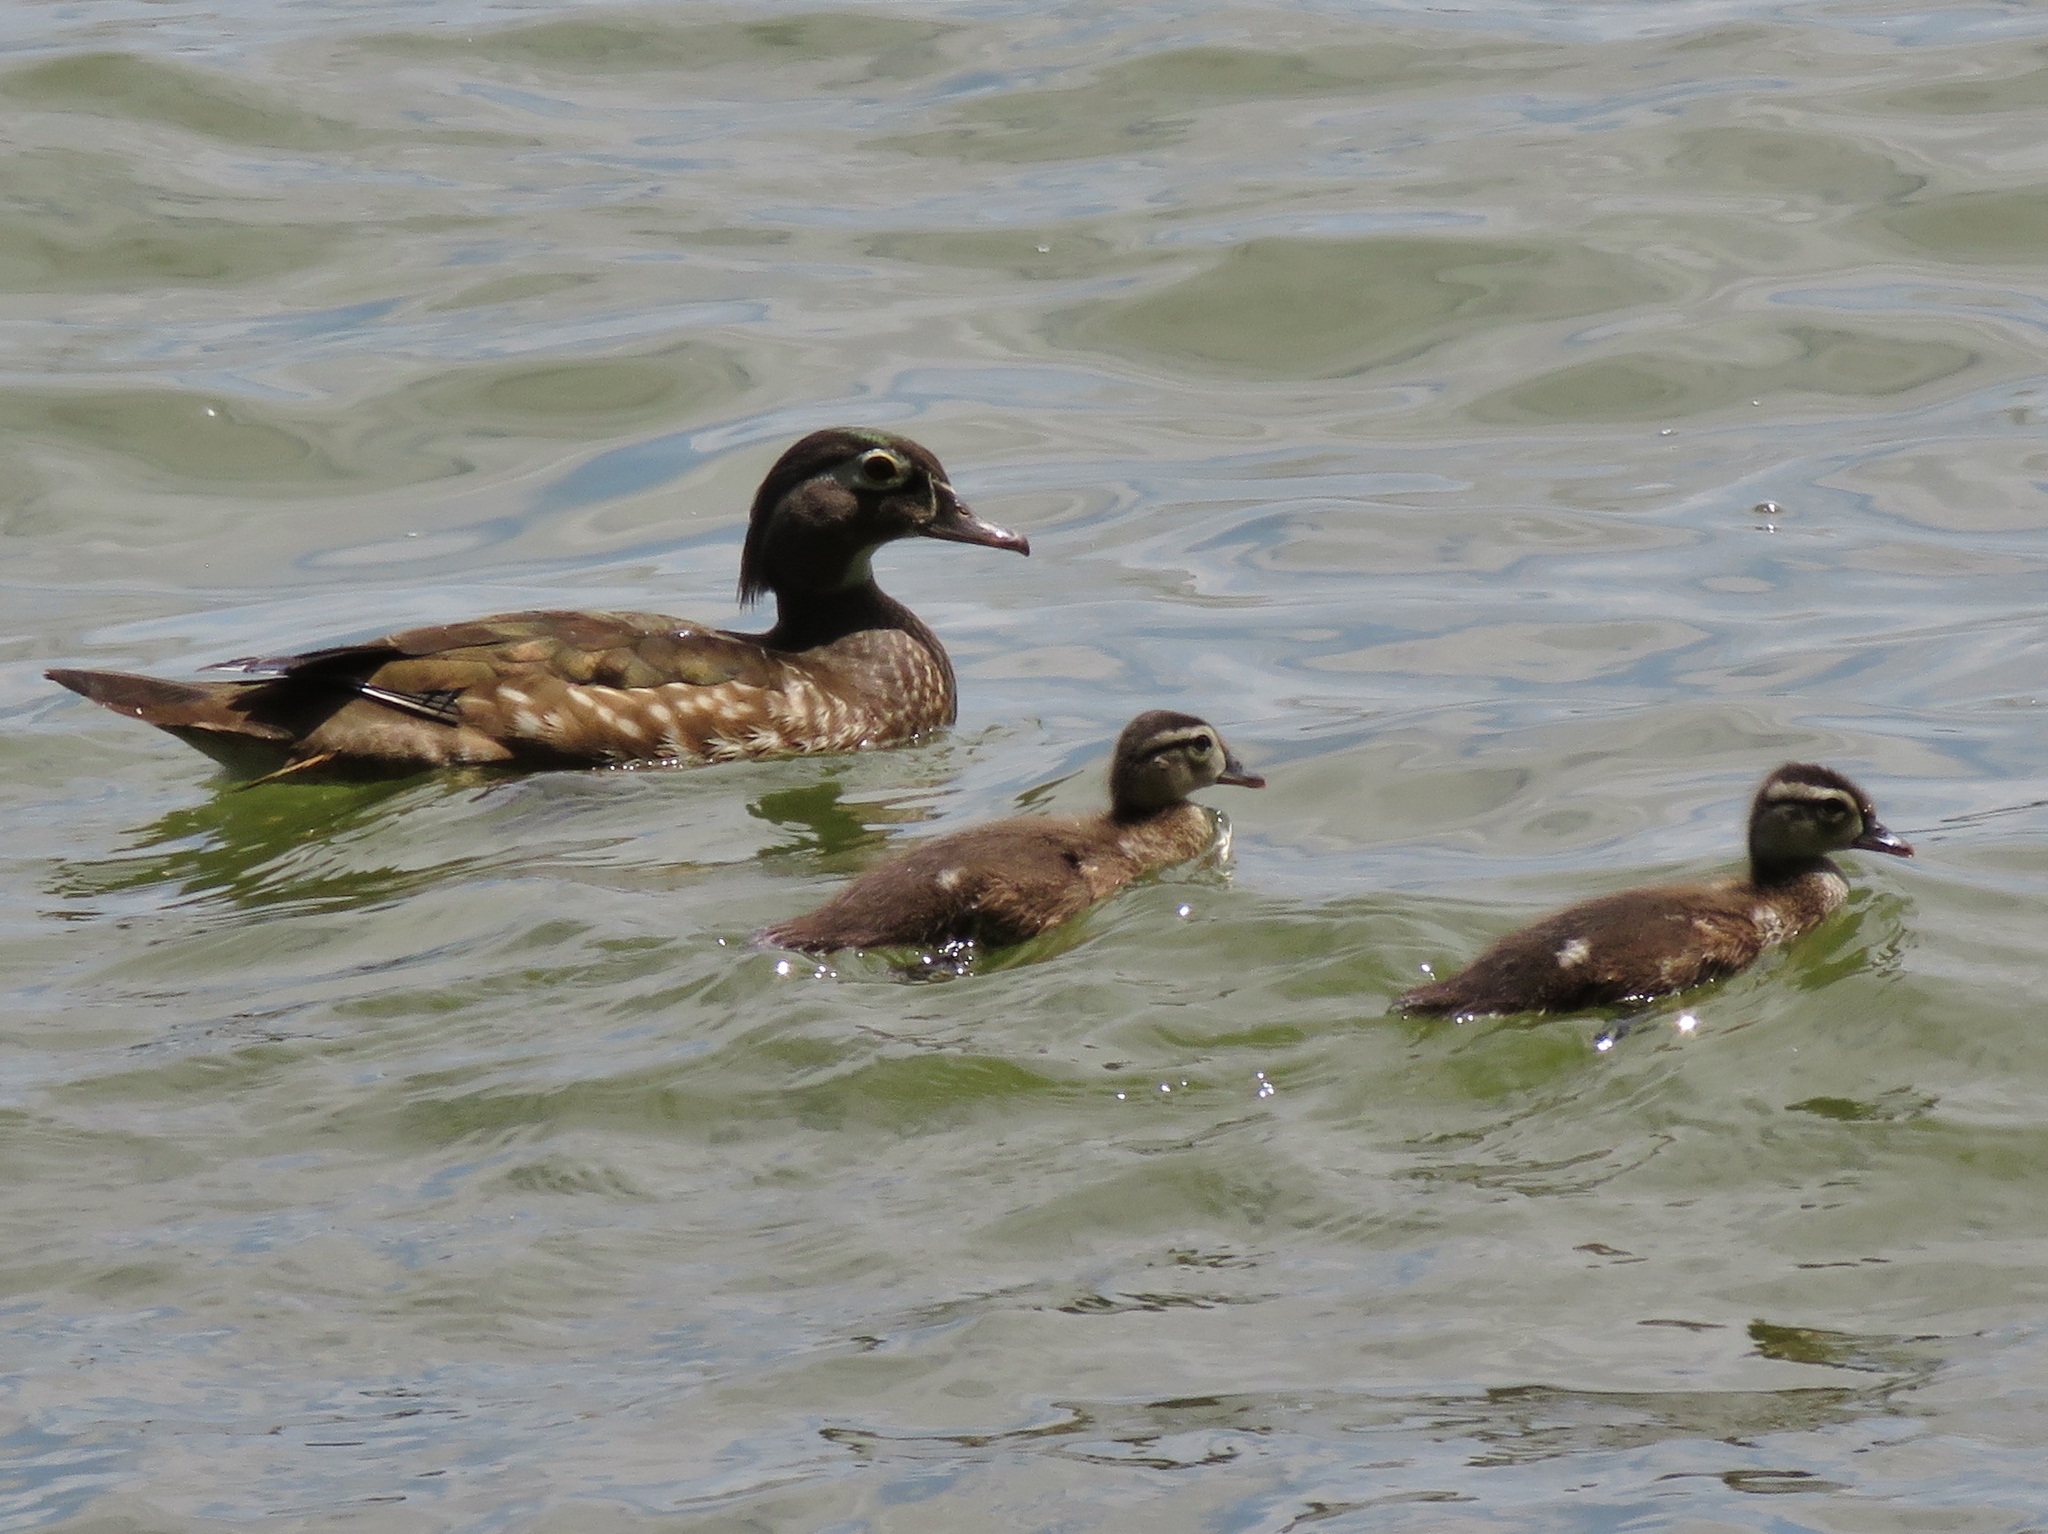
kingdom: Animalia
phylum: Chordata
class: Aves
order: Anseriformes
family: Anatidae
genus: Aix
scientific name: Aix sponsa
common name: Wood duck
